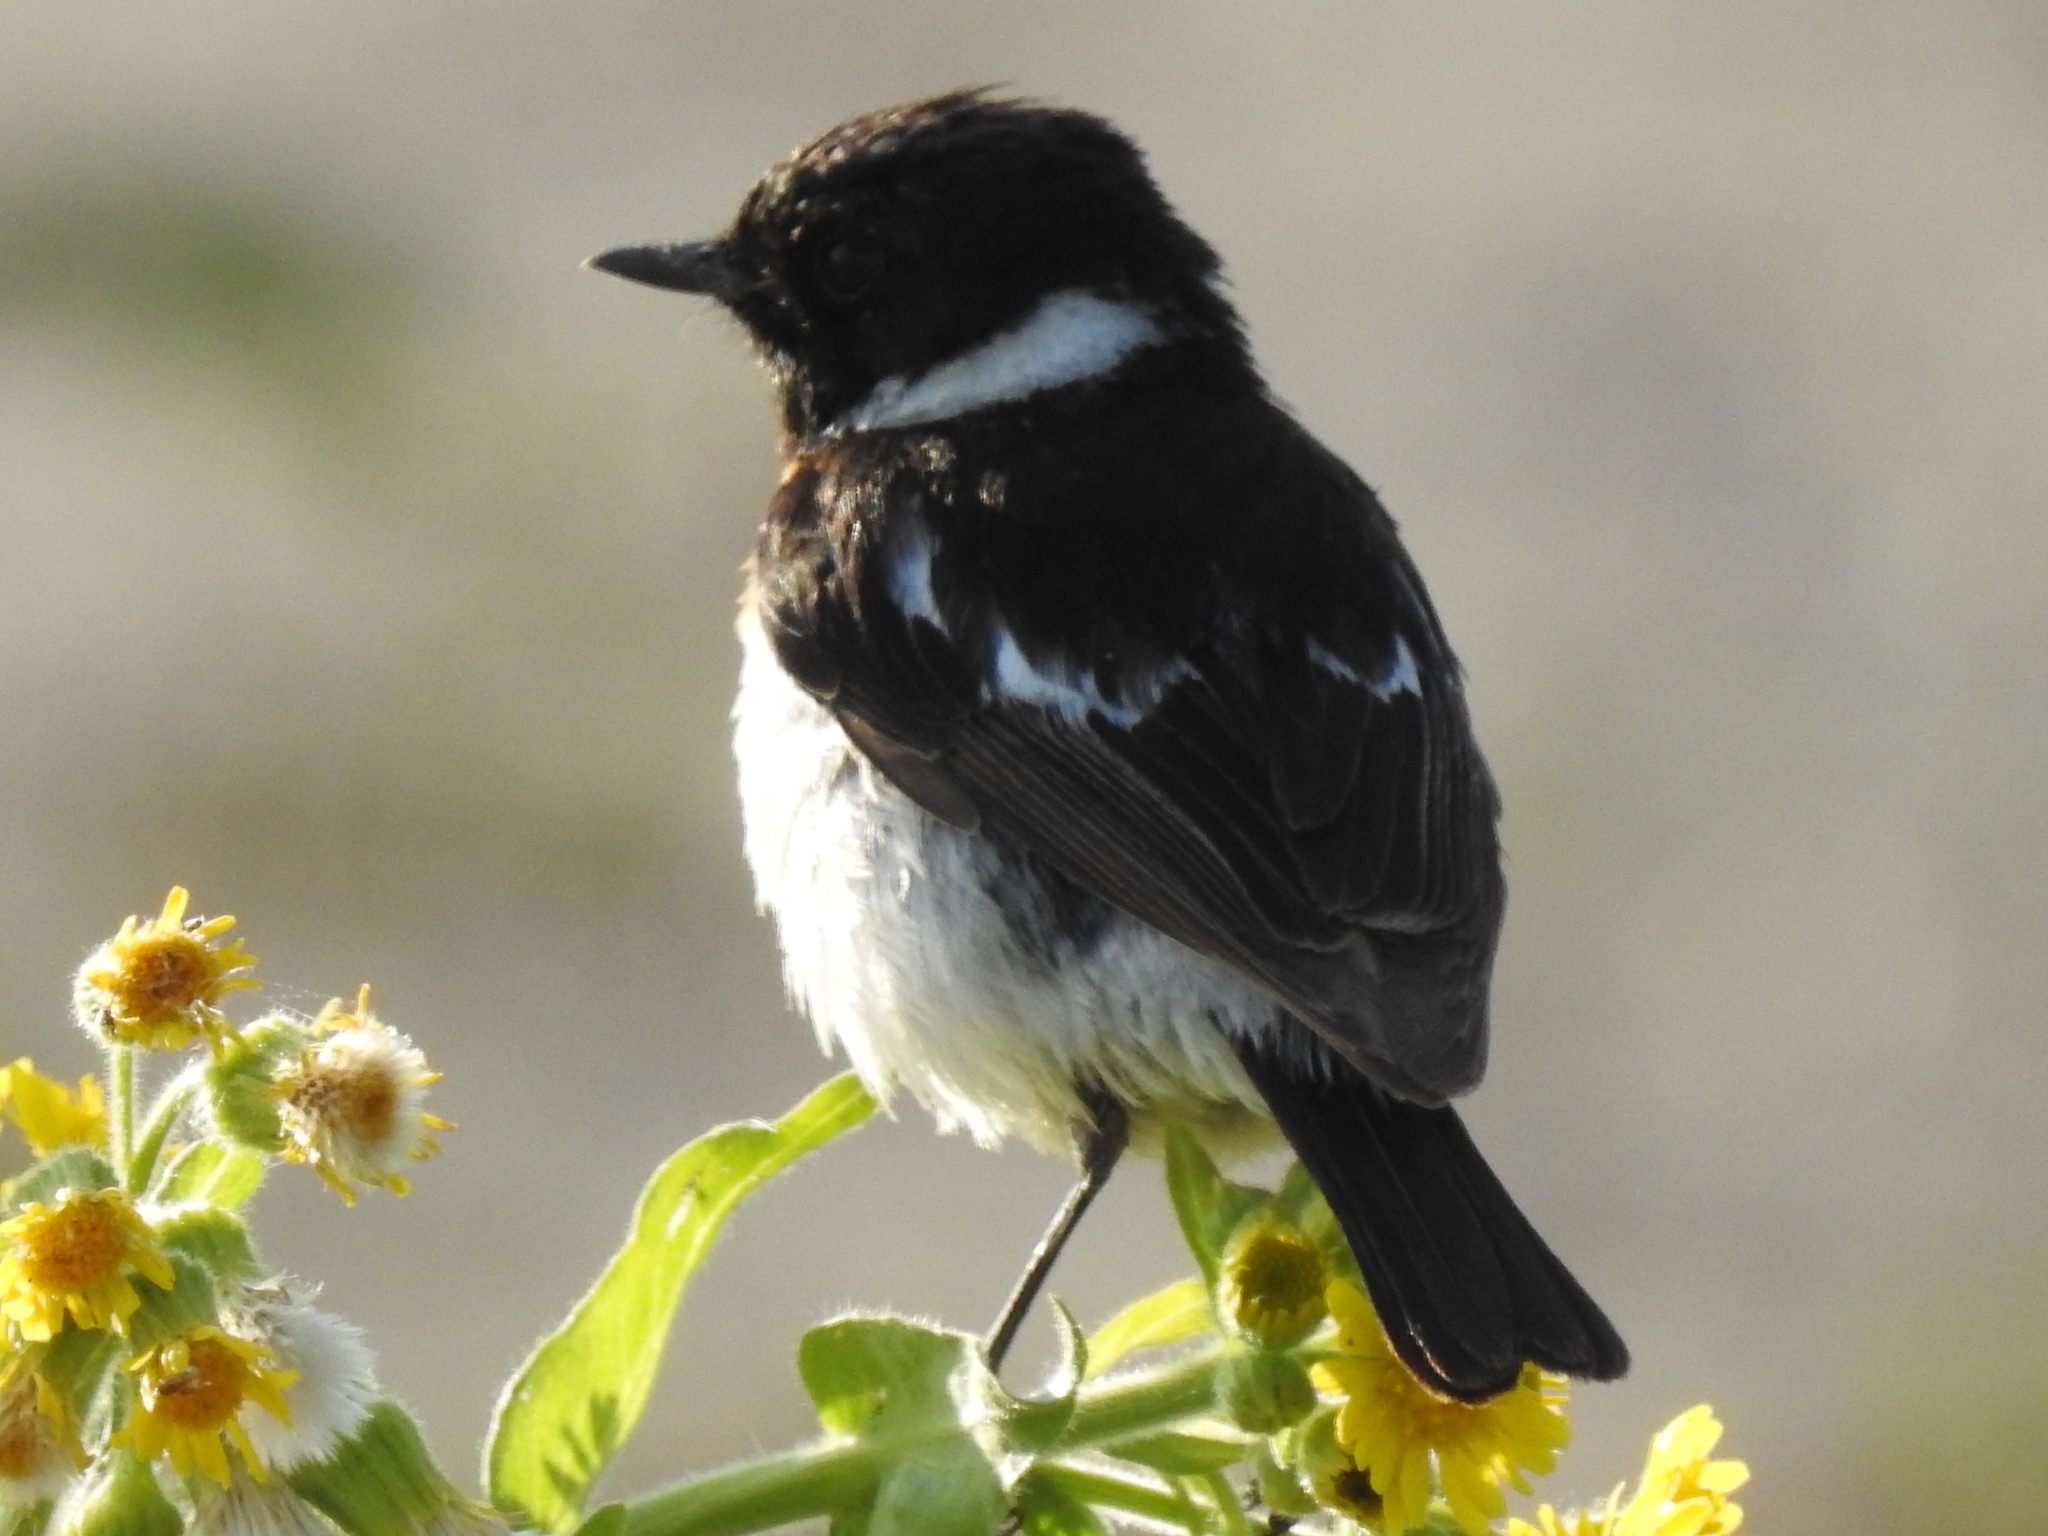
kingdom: Animalia
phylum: Chordata
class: Aves
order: Passeriformes
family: Muscicapidae
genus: Saxicola
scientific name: Saxicola maurus
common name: Siberian stonechat
